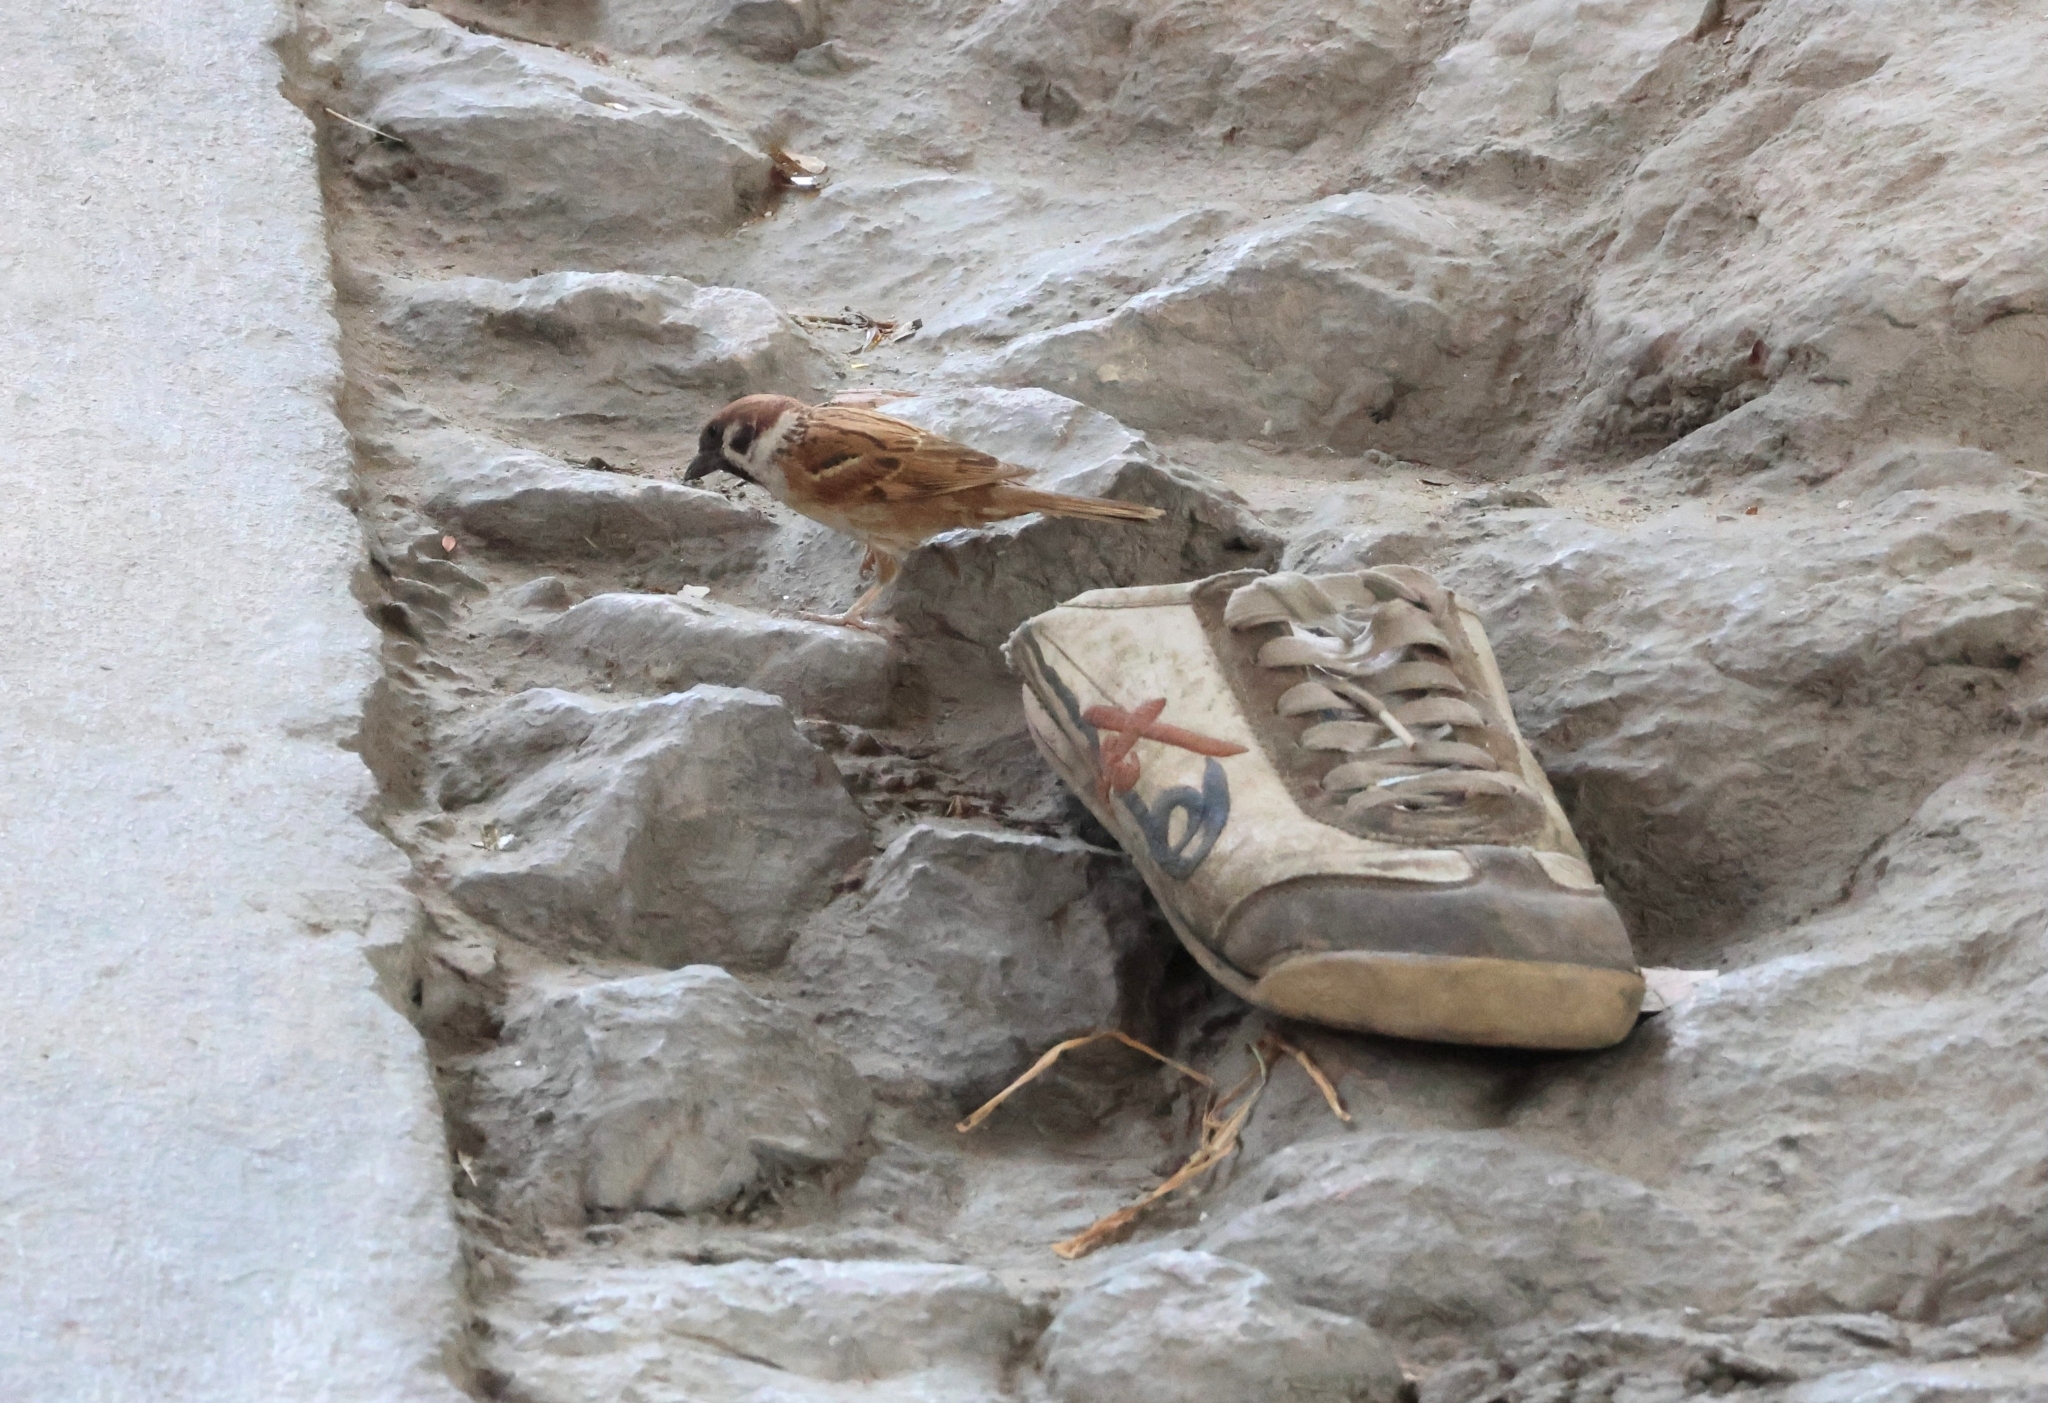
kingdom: Animalia
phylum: Chordata
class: Aves
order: Passeriformes
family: Passeridae
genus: Passer
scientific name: Passer montanus
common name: Eurasian tree sparrow
